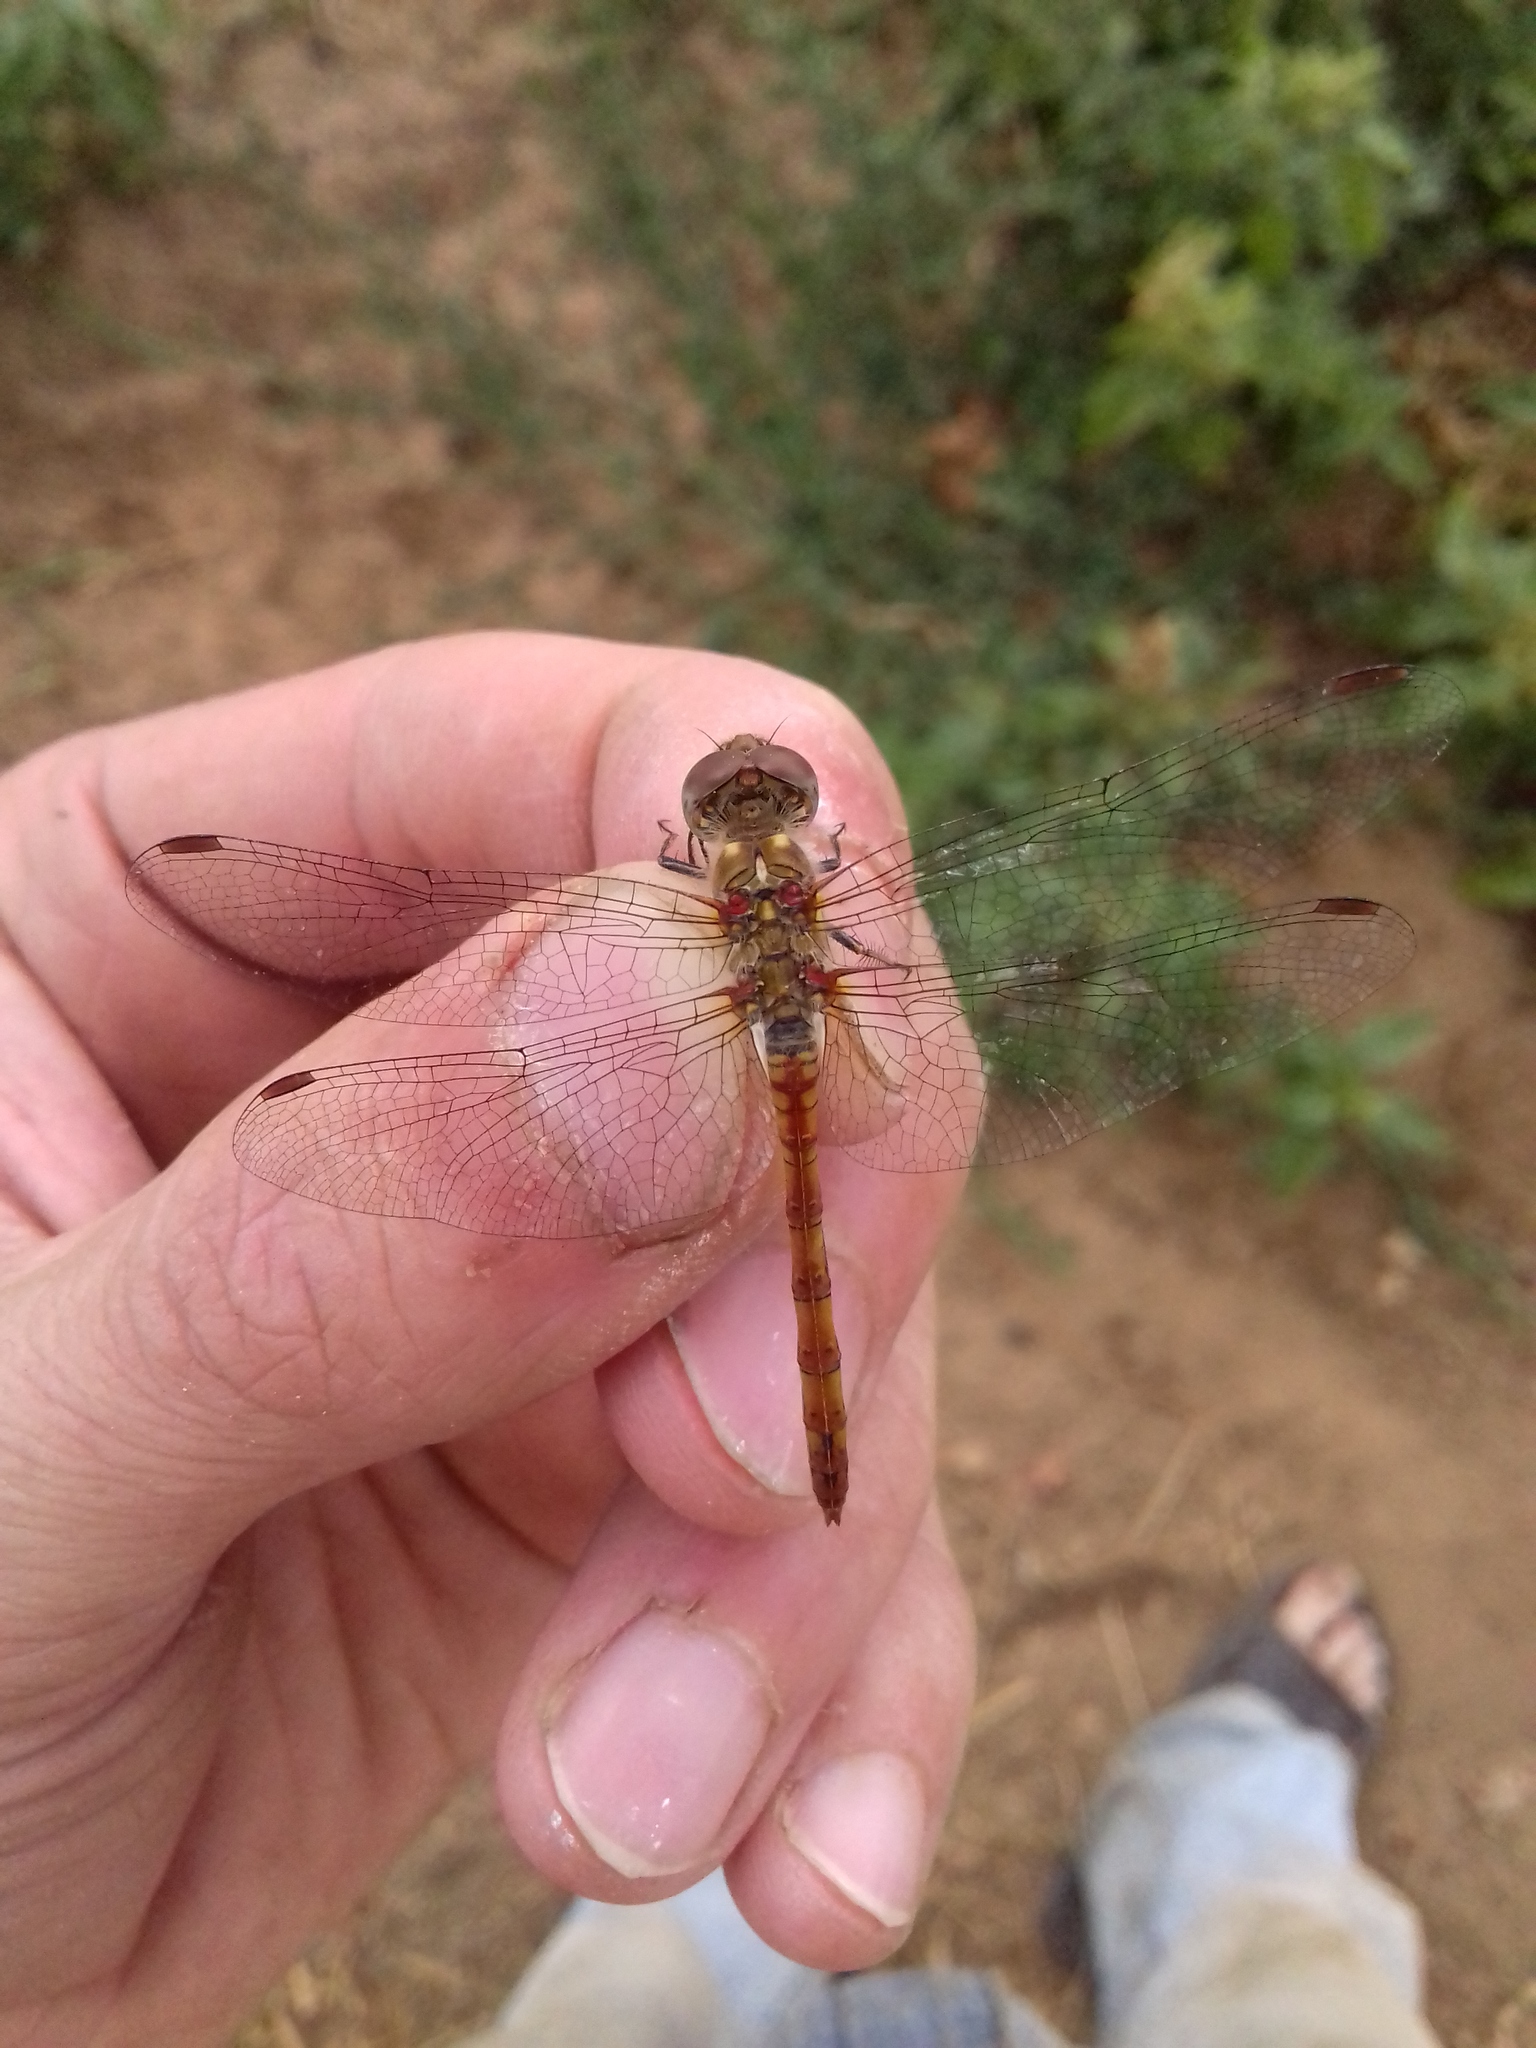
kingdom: Animalia
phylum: Arthropoda
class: Insecta
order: Odonata
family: Libellulidae
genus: Sympetrum
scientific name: Sympetrum meridionale
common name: Southern darter
